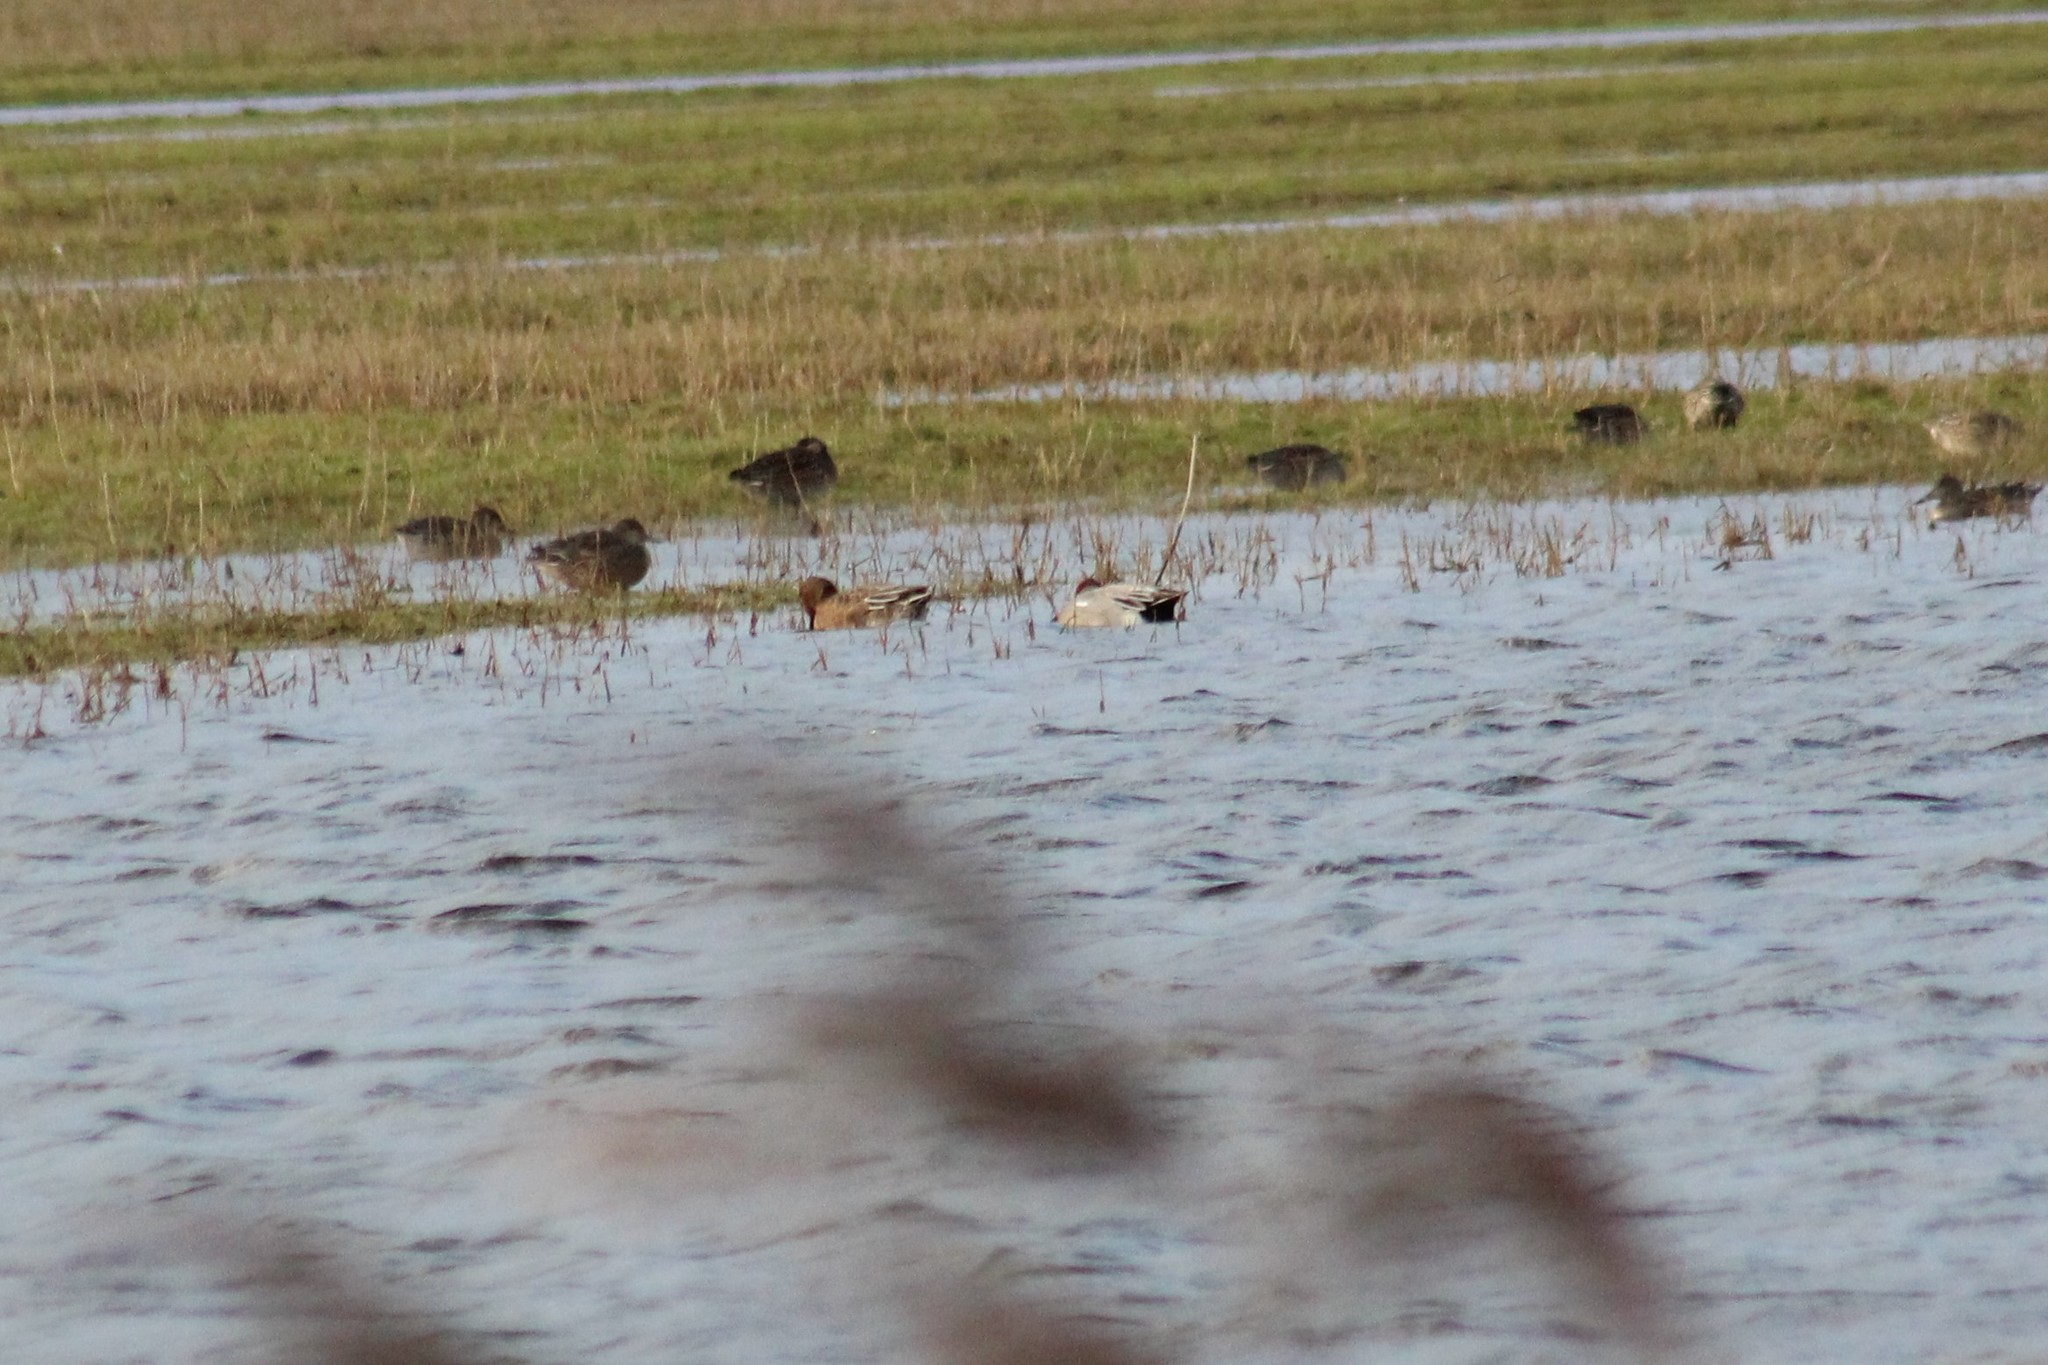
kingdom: Animalia
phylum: Chordata
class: Aves
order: Anseriformes
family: Anatidae
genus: Mareca
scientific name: Mareca penelope
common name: Eurasian wigeon
